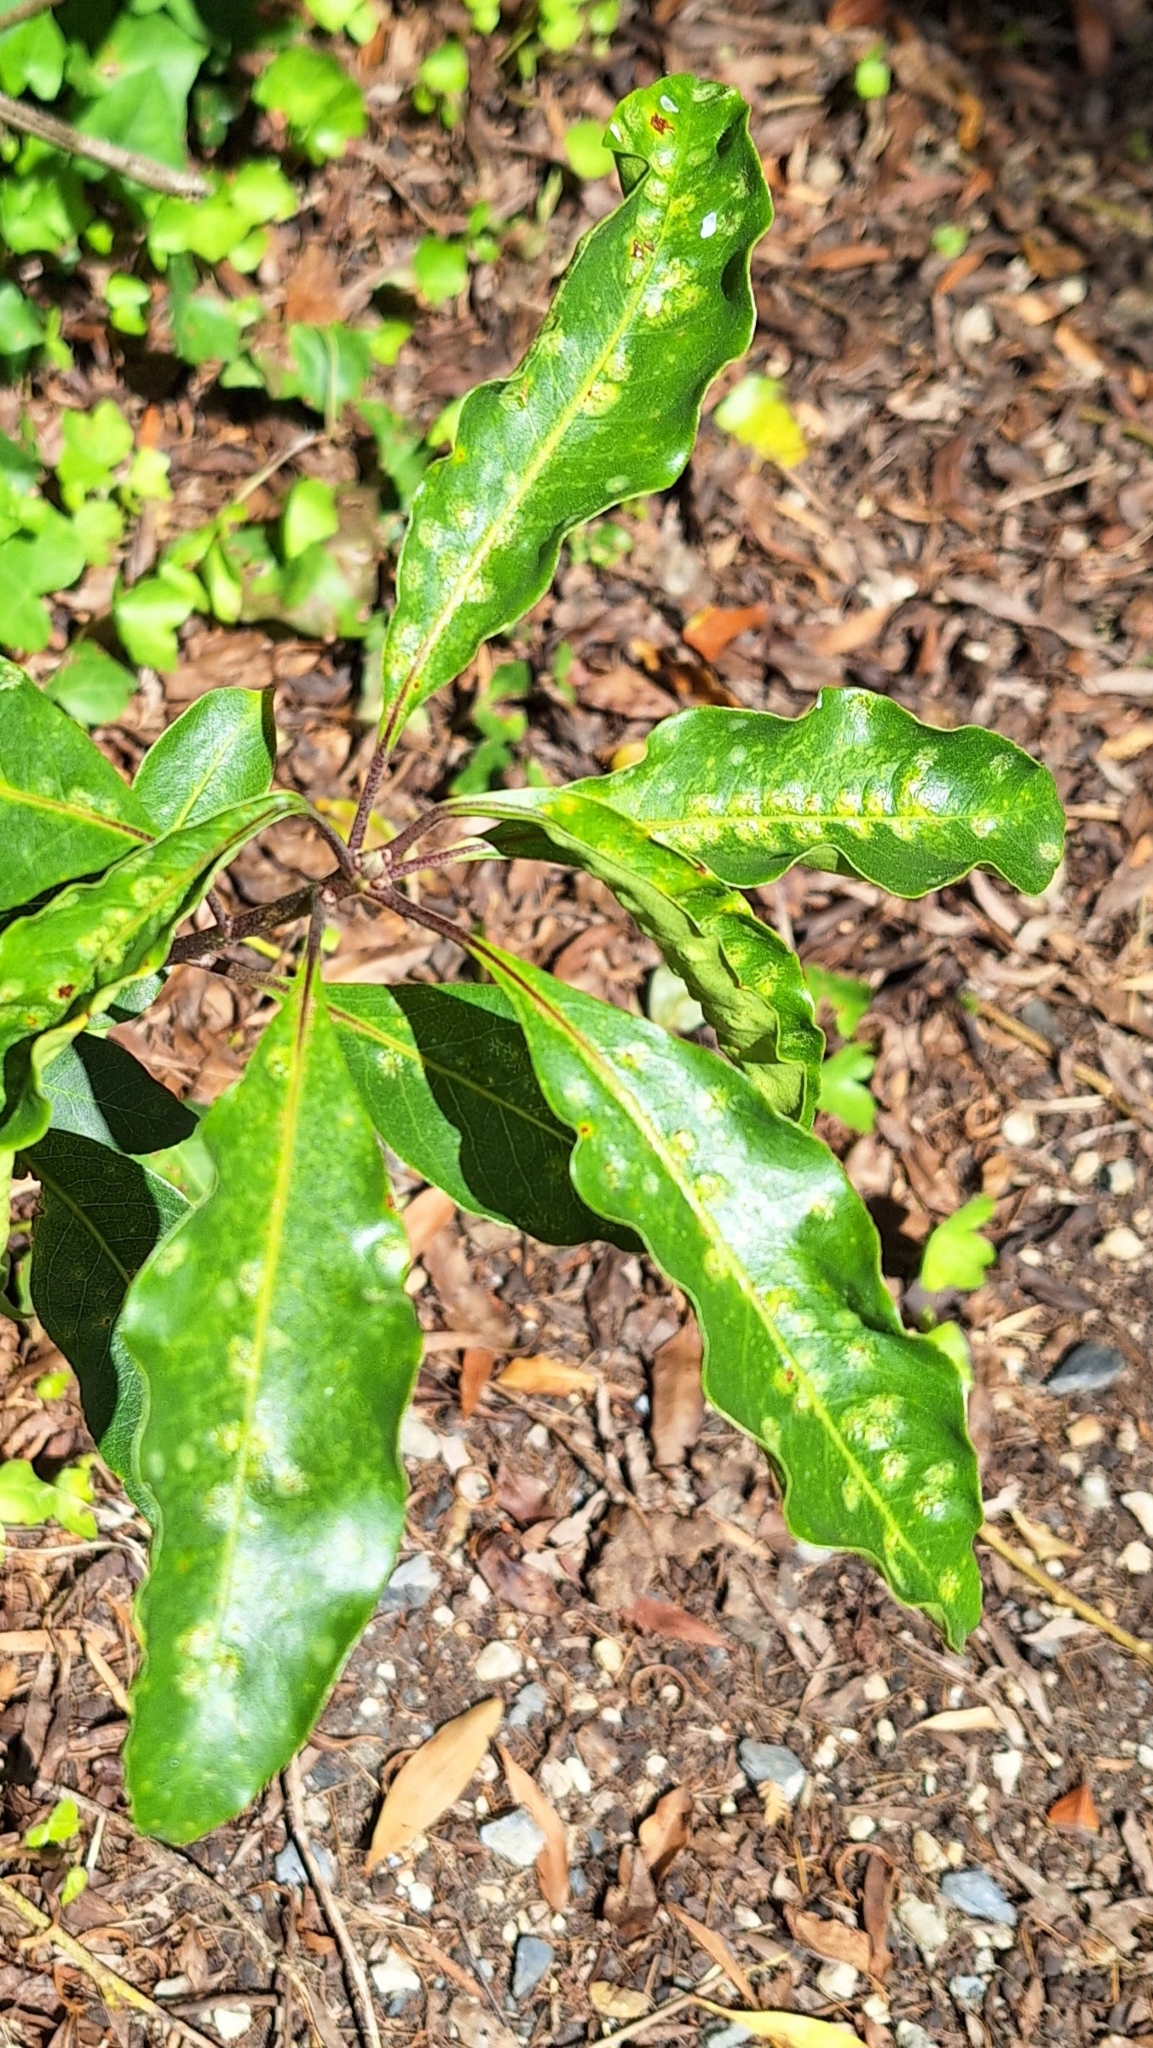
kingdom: Animalia
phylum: Arthropoda
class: Insecta
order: Diptera
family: Agromyzidae
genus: Phytoliriomyza
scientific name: Phytoliriomyza pittosporophylli
